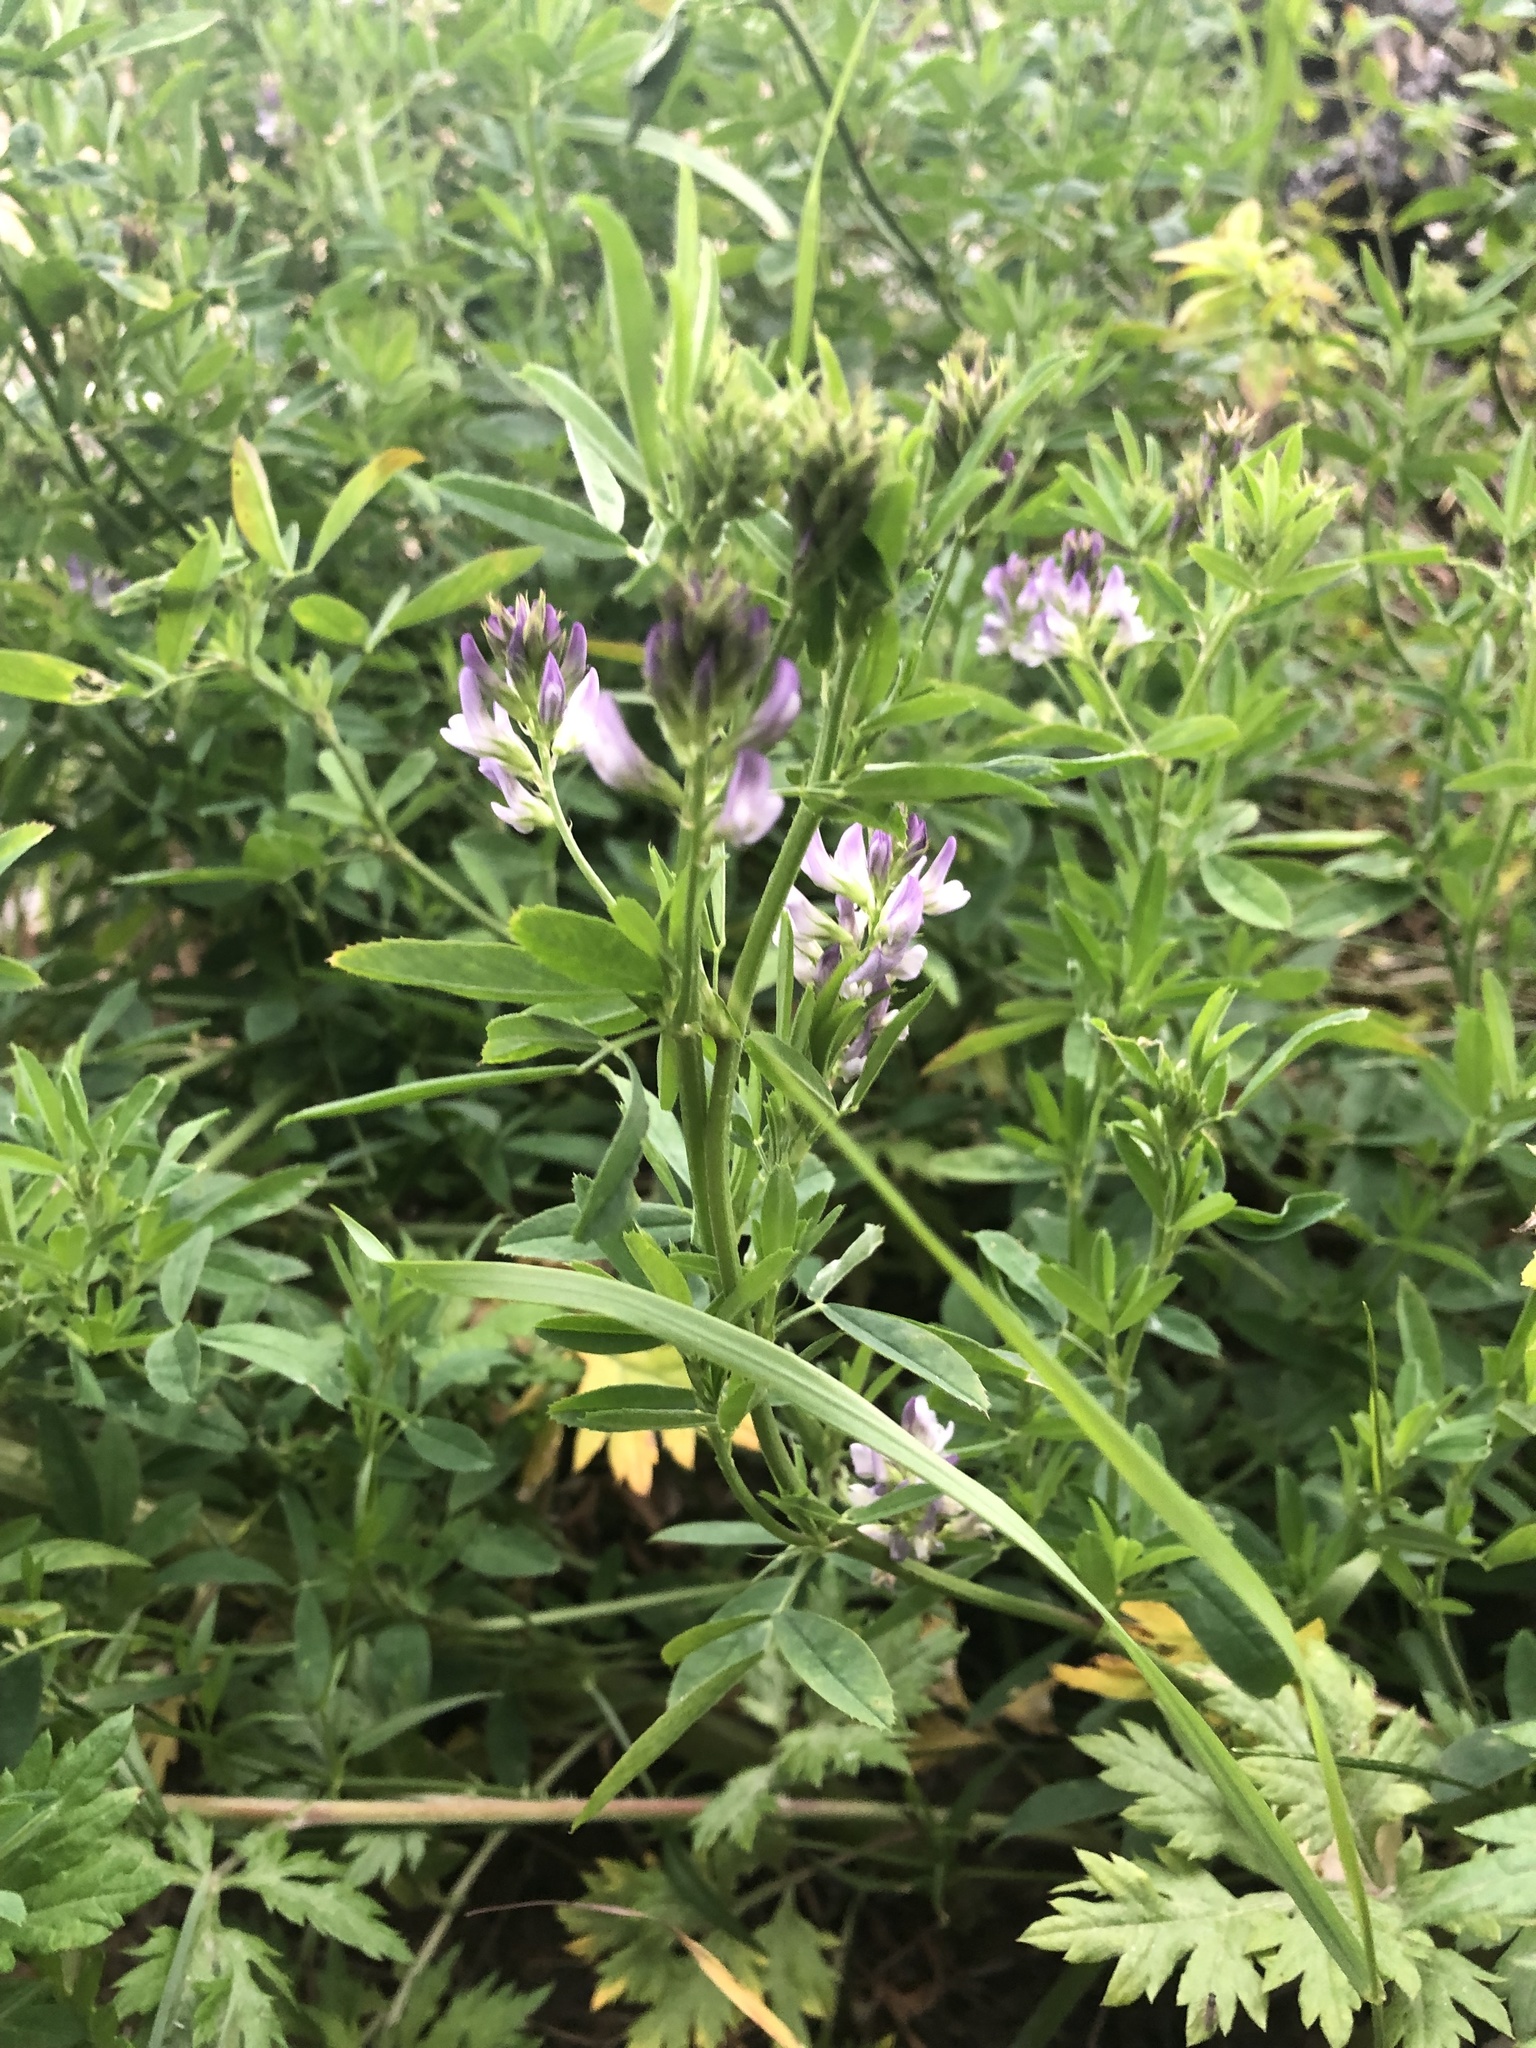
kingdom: Plantae
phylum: Tracheophyta
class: Magnoliopsida
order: Fabales
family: Fabaceae
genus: Medicago
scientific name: Medicago
